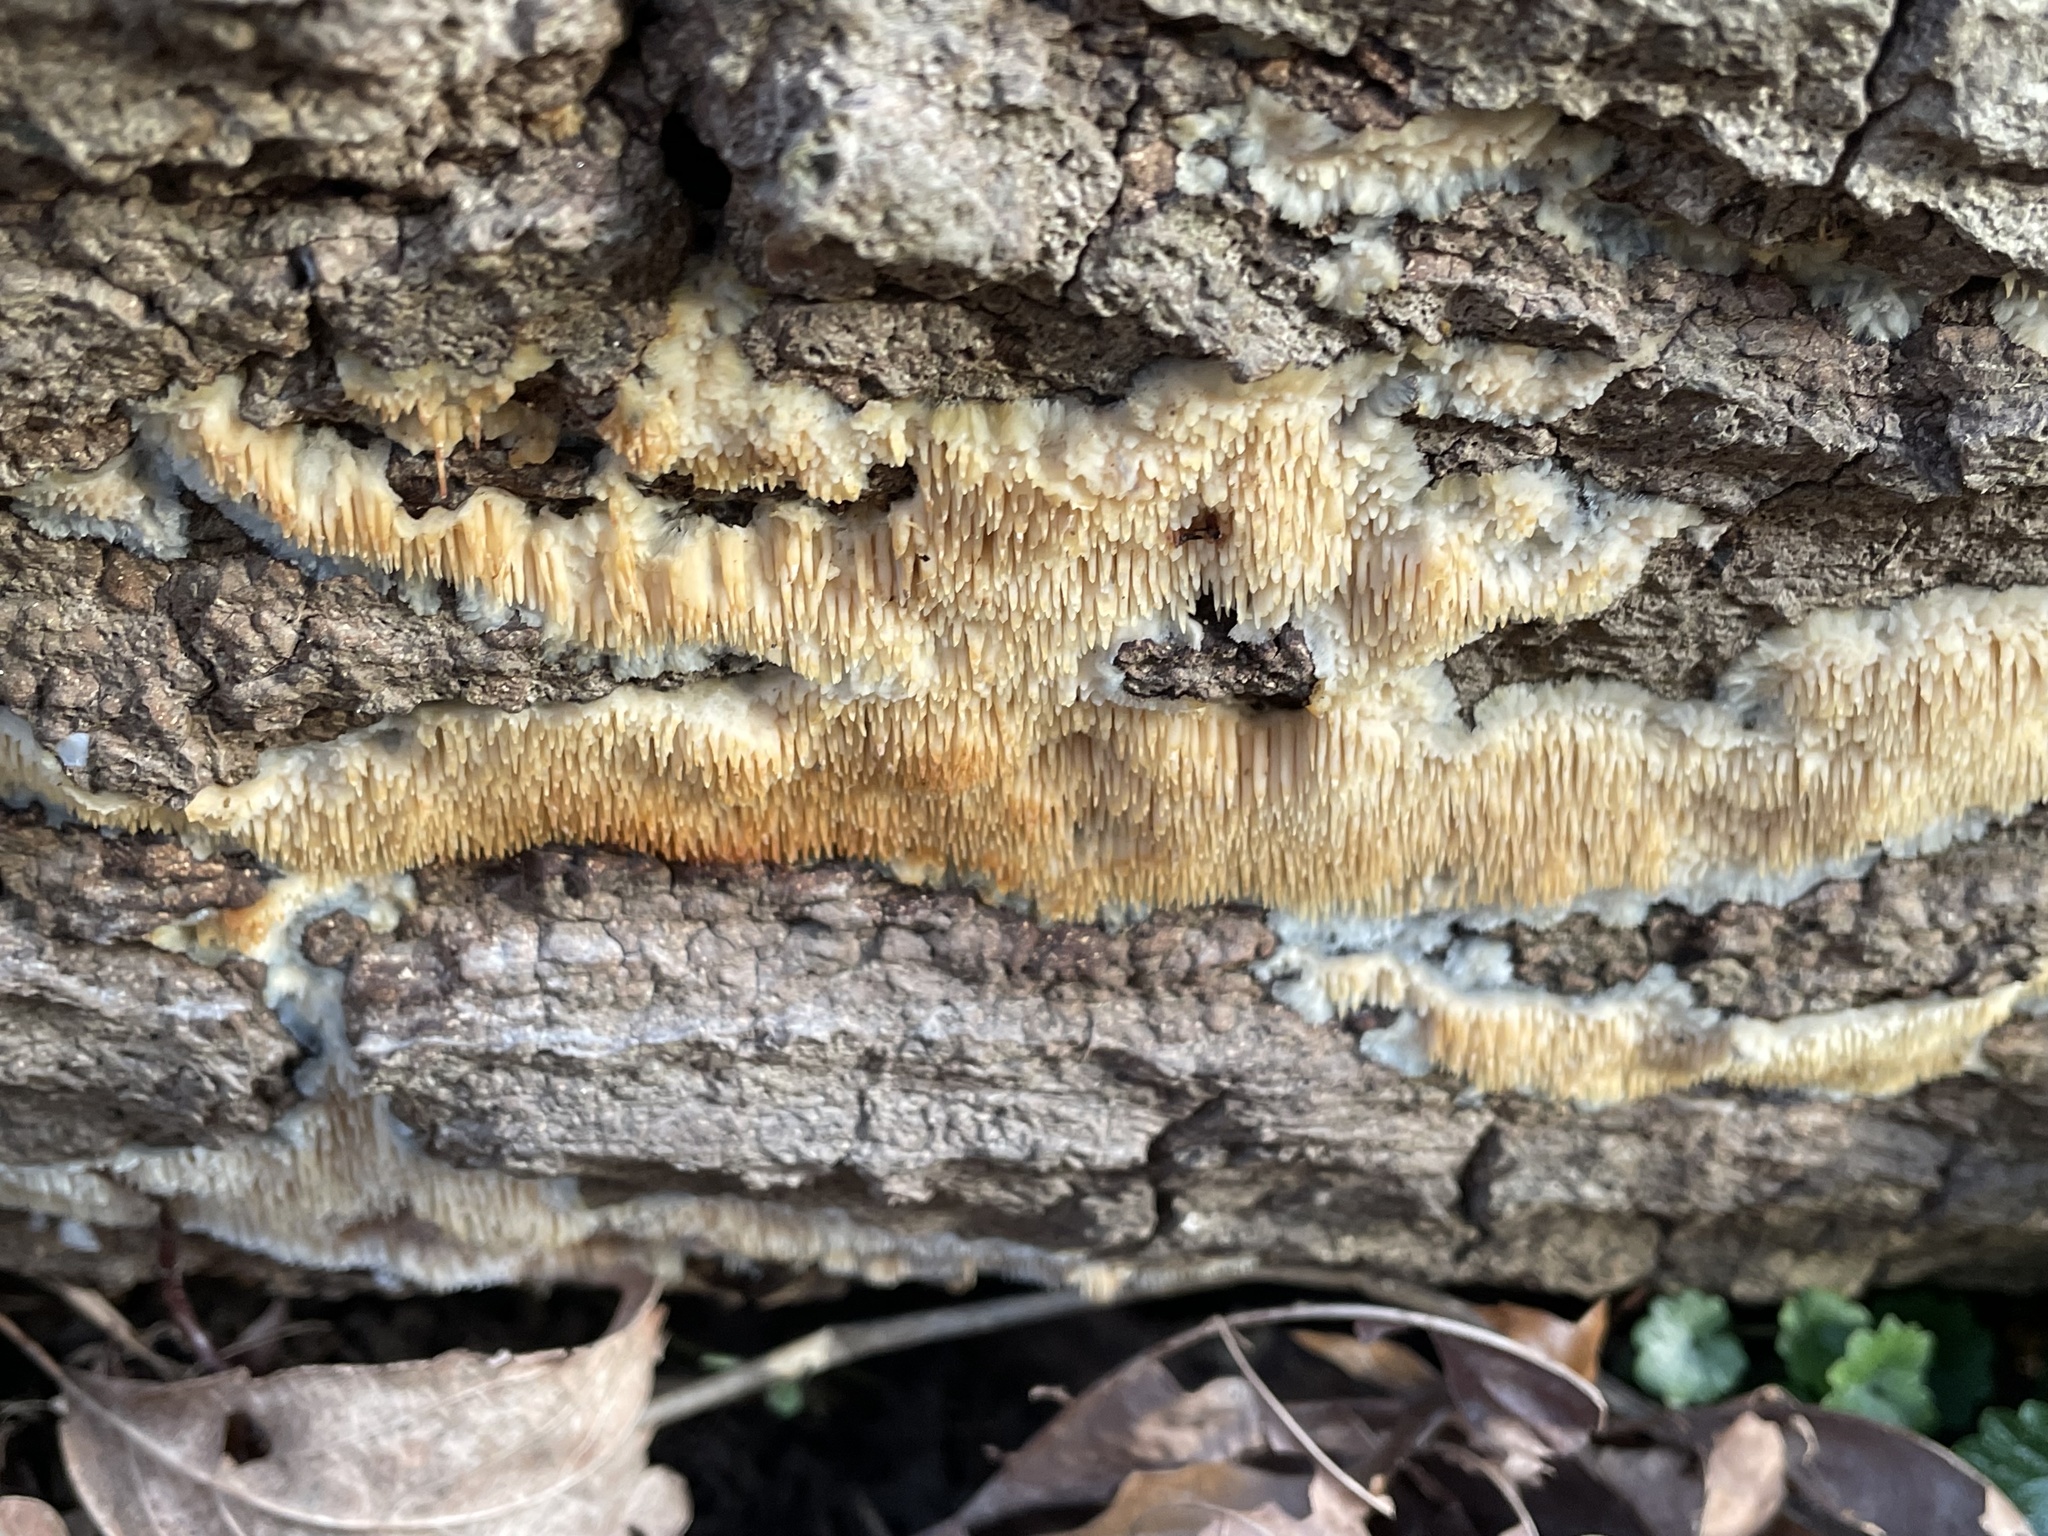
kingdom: Fungi
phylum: Basidiomycota
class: Agaricomycetes
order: Agaricales
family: Radulomycetaceae
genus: Radulomyces
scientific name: Radulomyces copelandii
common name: Asian beauty
